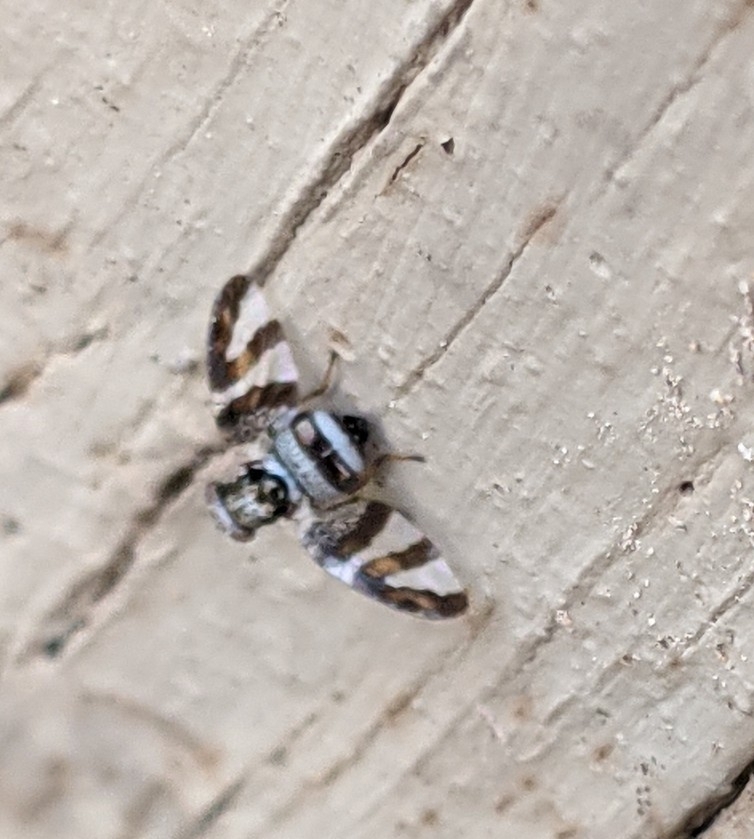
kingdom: Animalia
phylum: Arthropoda
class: Insecta
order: Diptera
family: Ulidiidae
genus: Dyscrasis
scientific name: Dyscrasis hendeli
